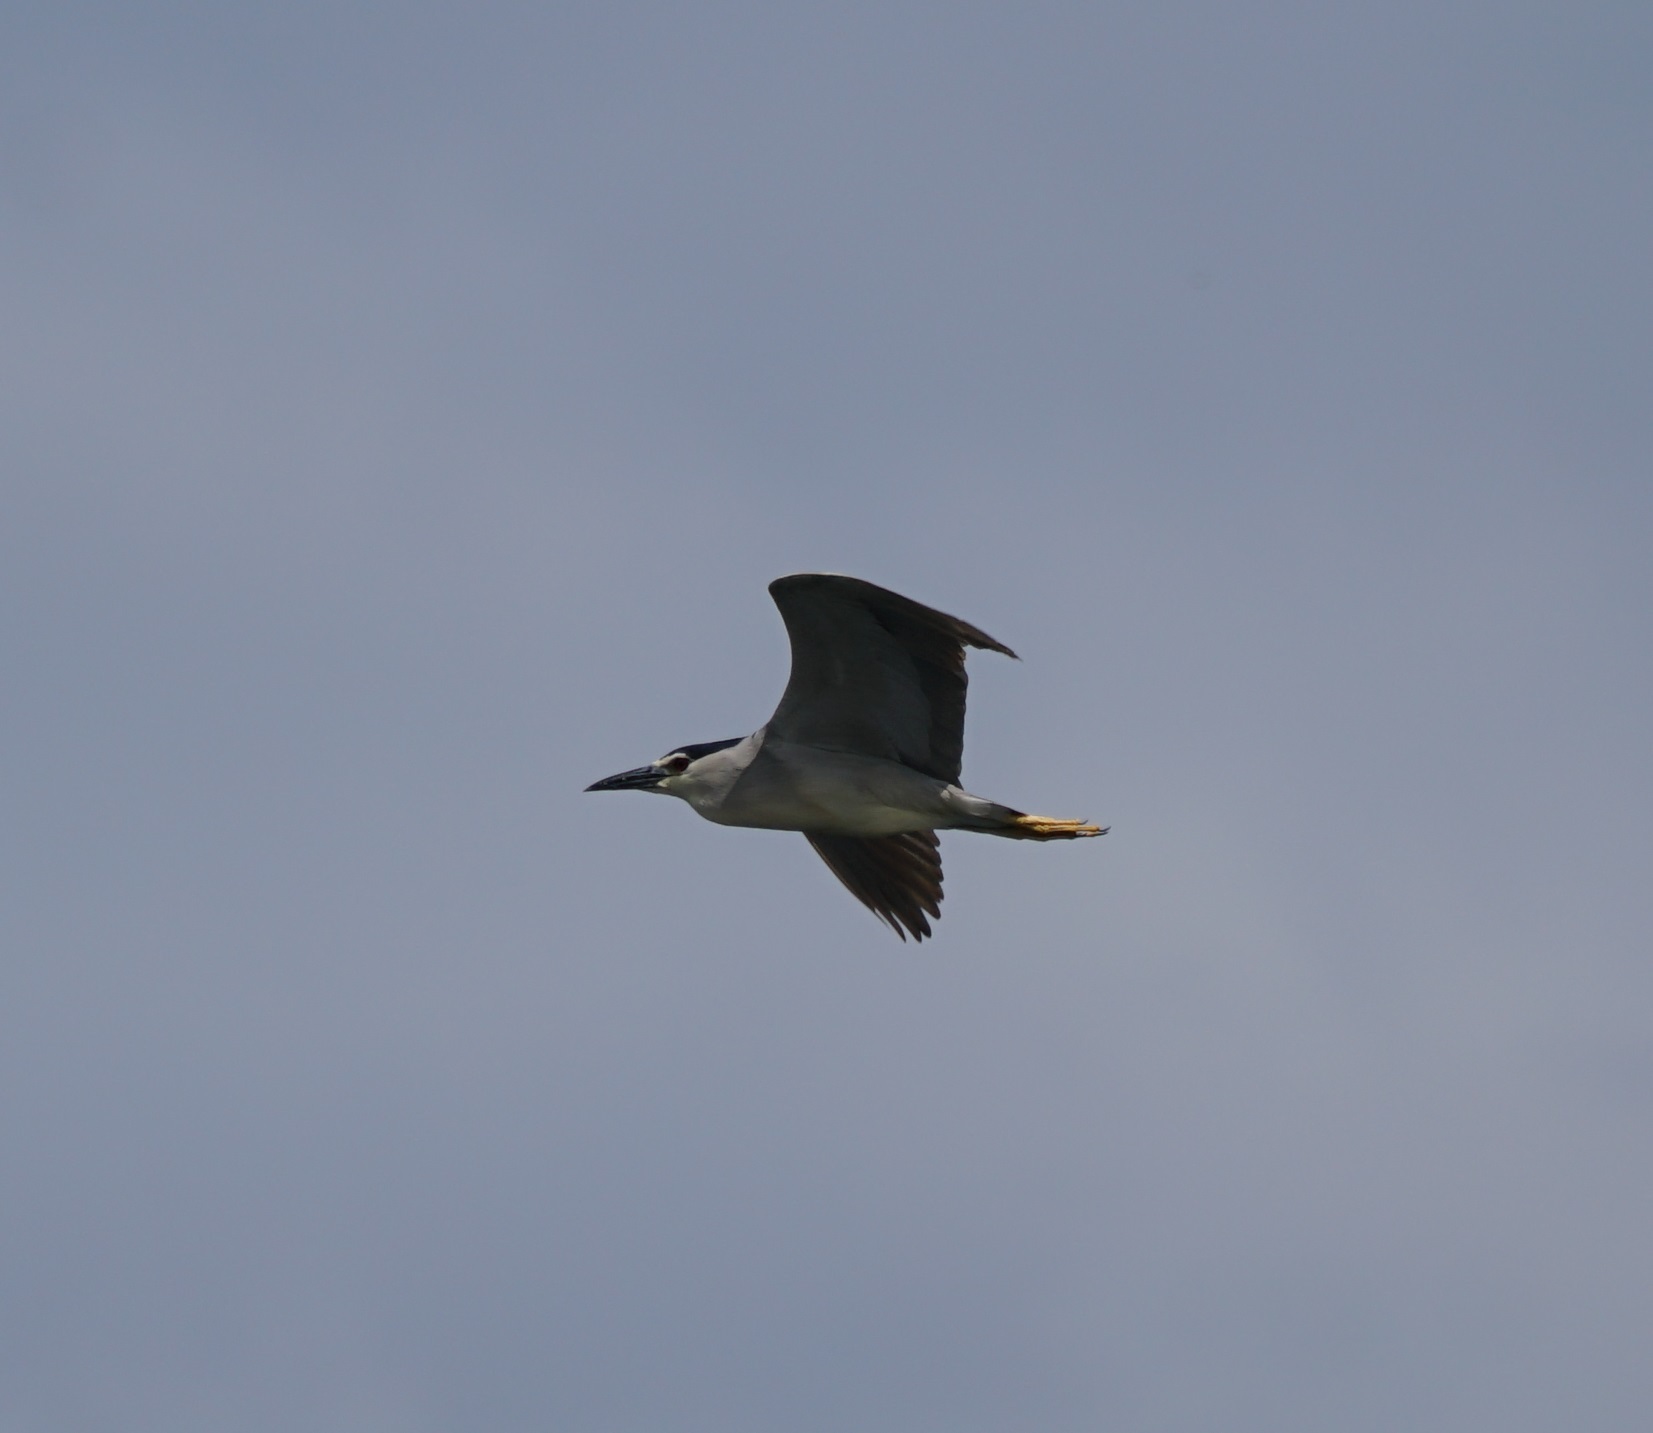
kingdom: Animalia
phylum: Chordata
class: Aves
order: Pelecaniformes
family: Ardeidae
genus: Nycticorax
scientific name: Nycticorax nycticorax
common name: Black-crowned night heron
